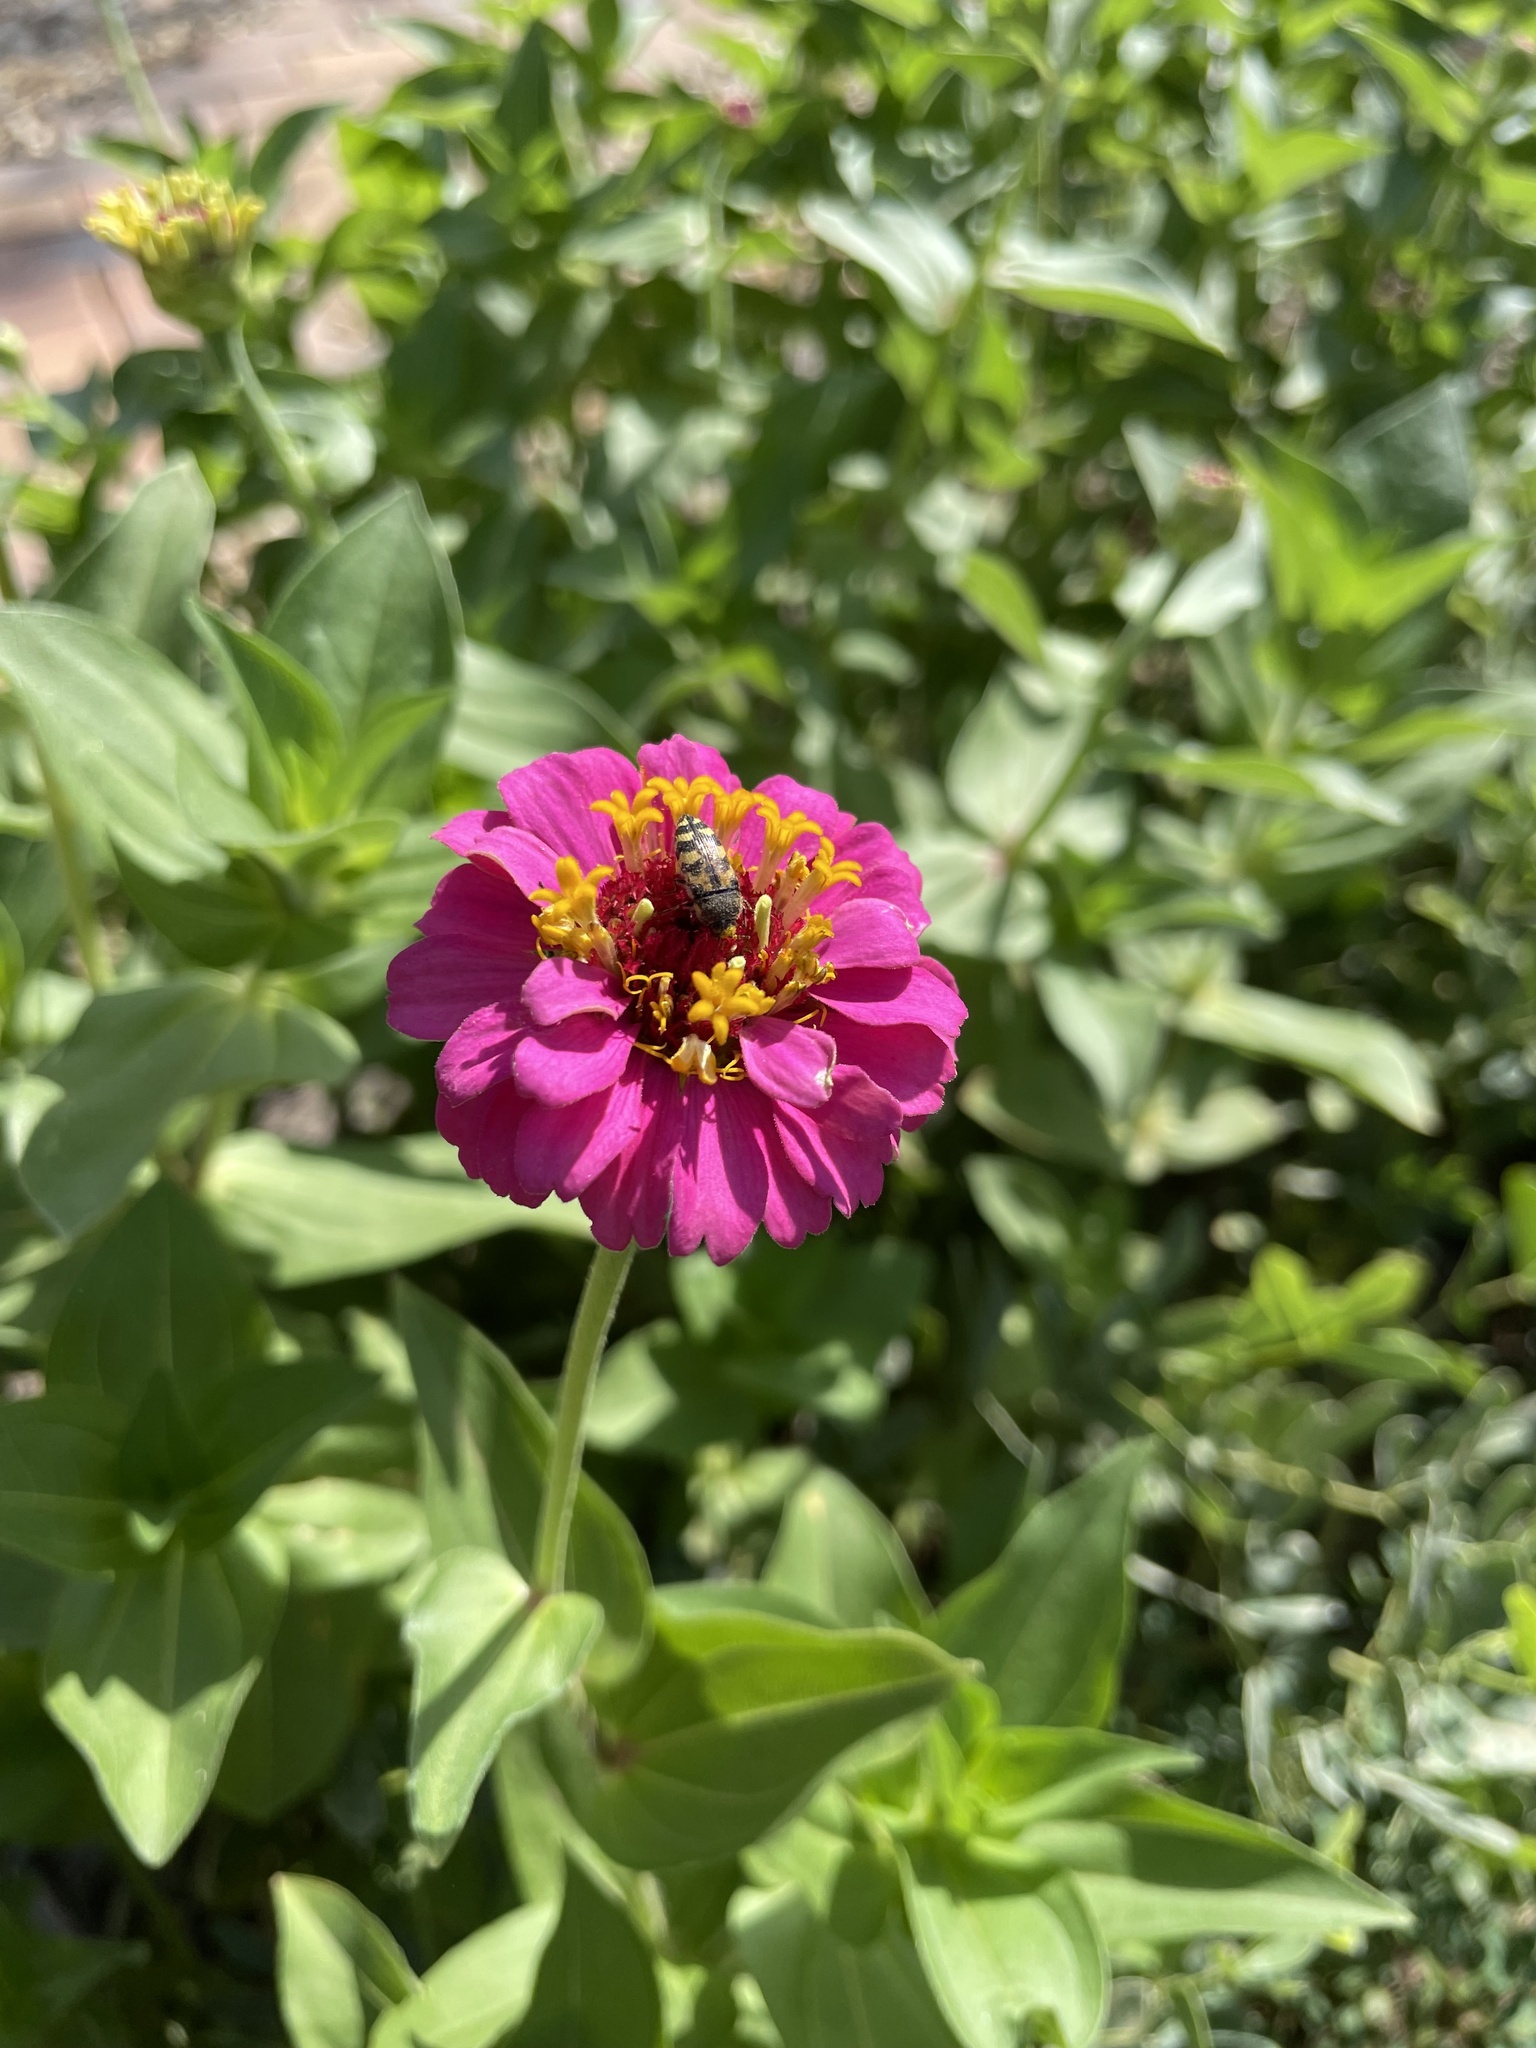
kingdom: Animalia
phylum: Arthropoda
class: Insecta
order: Coleoptera
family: Buprestidae
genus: Acmaeodera
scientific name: Acmaeodera mixta
